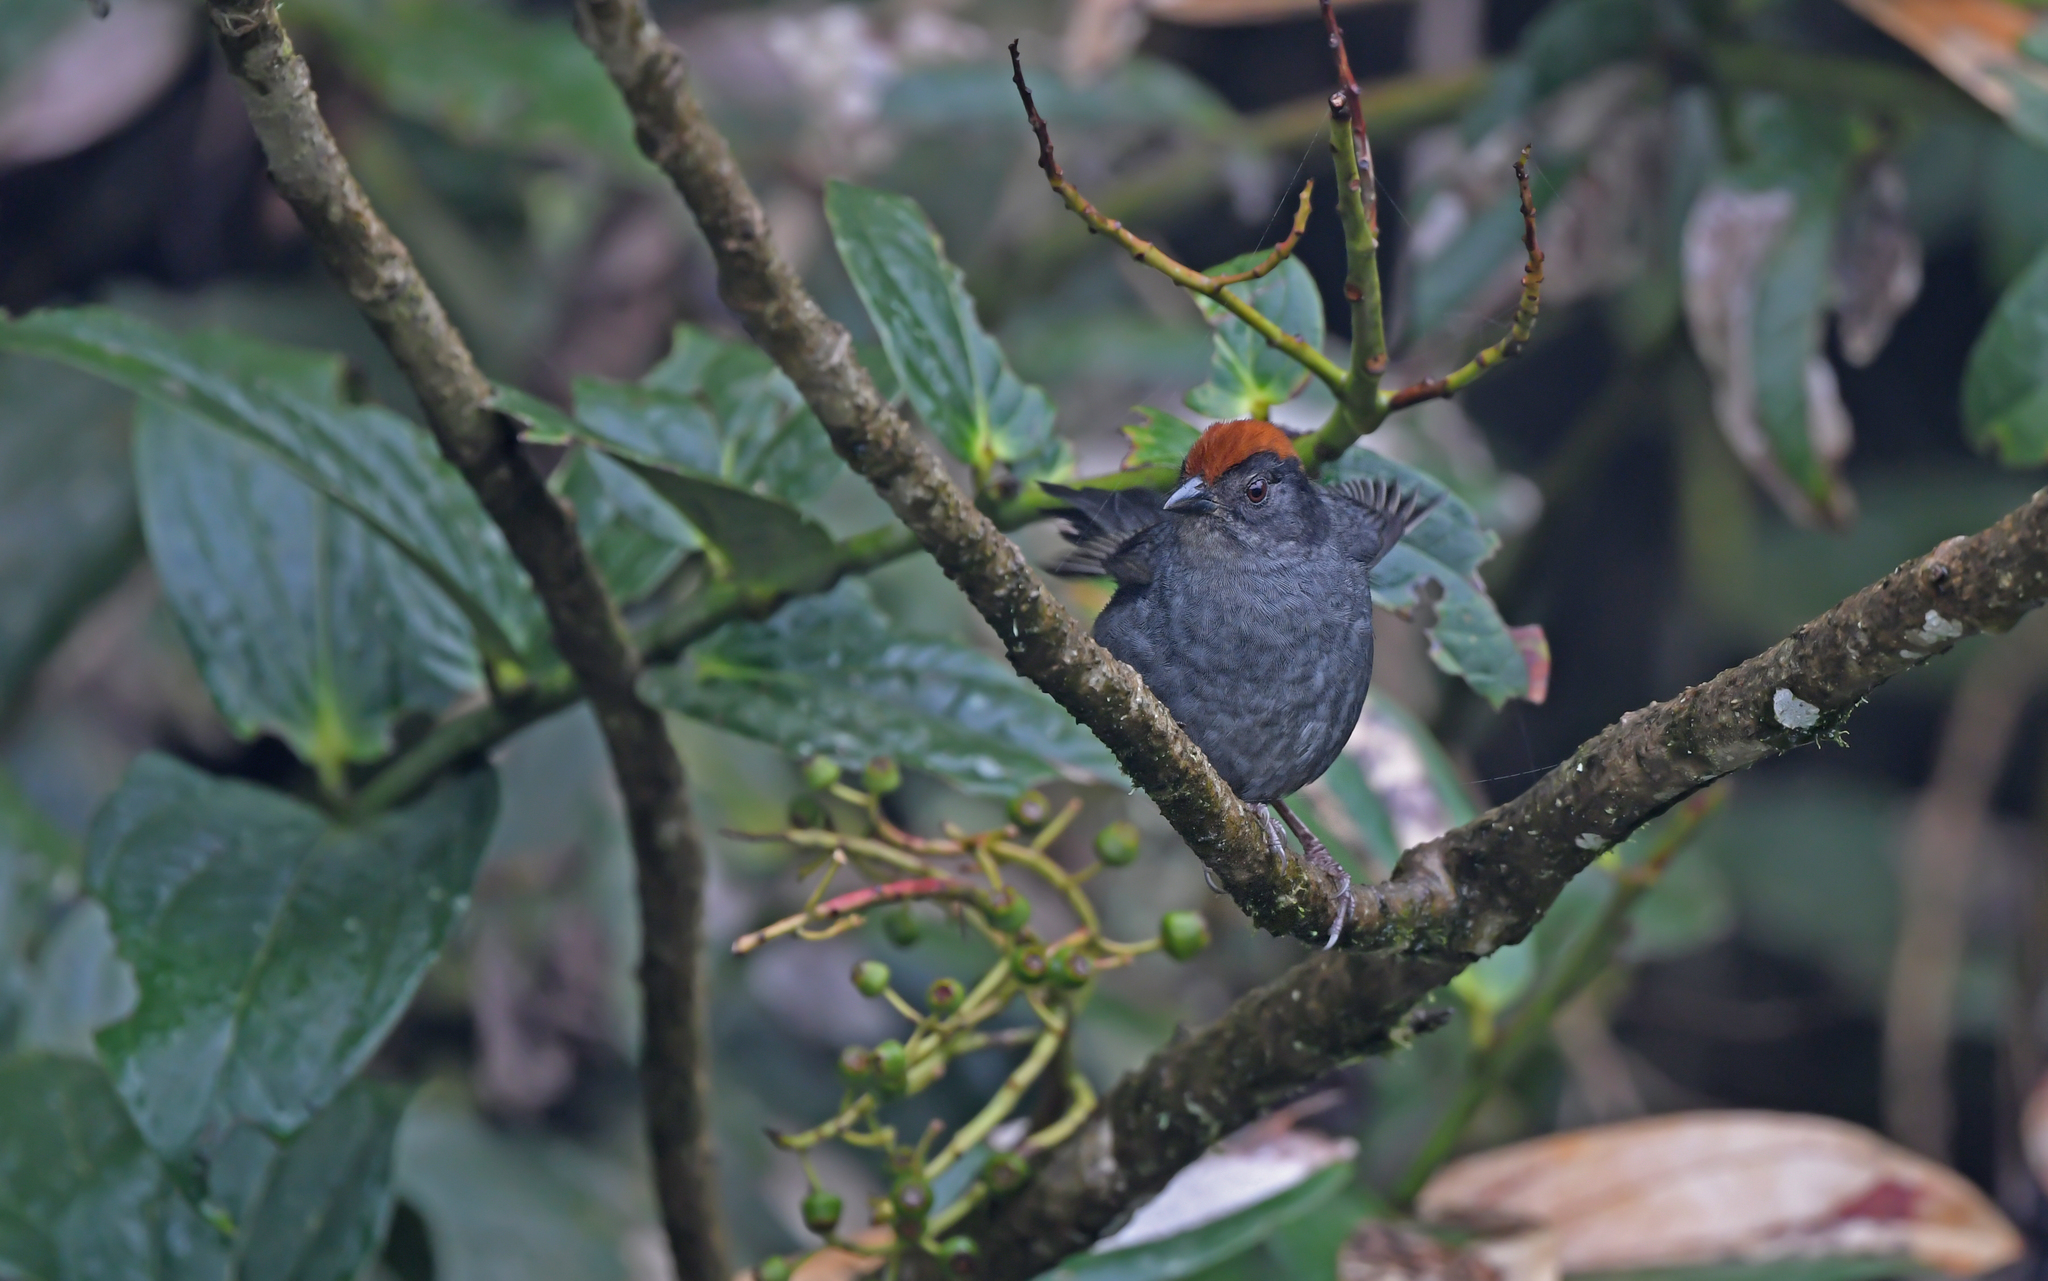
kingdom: Animalia
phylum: Chordata
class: Aves
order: Passeriformes
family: Passerellidae
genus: Atlapetes
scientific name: Atlapetes canigenis
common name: Cuzco brushfinch
